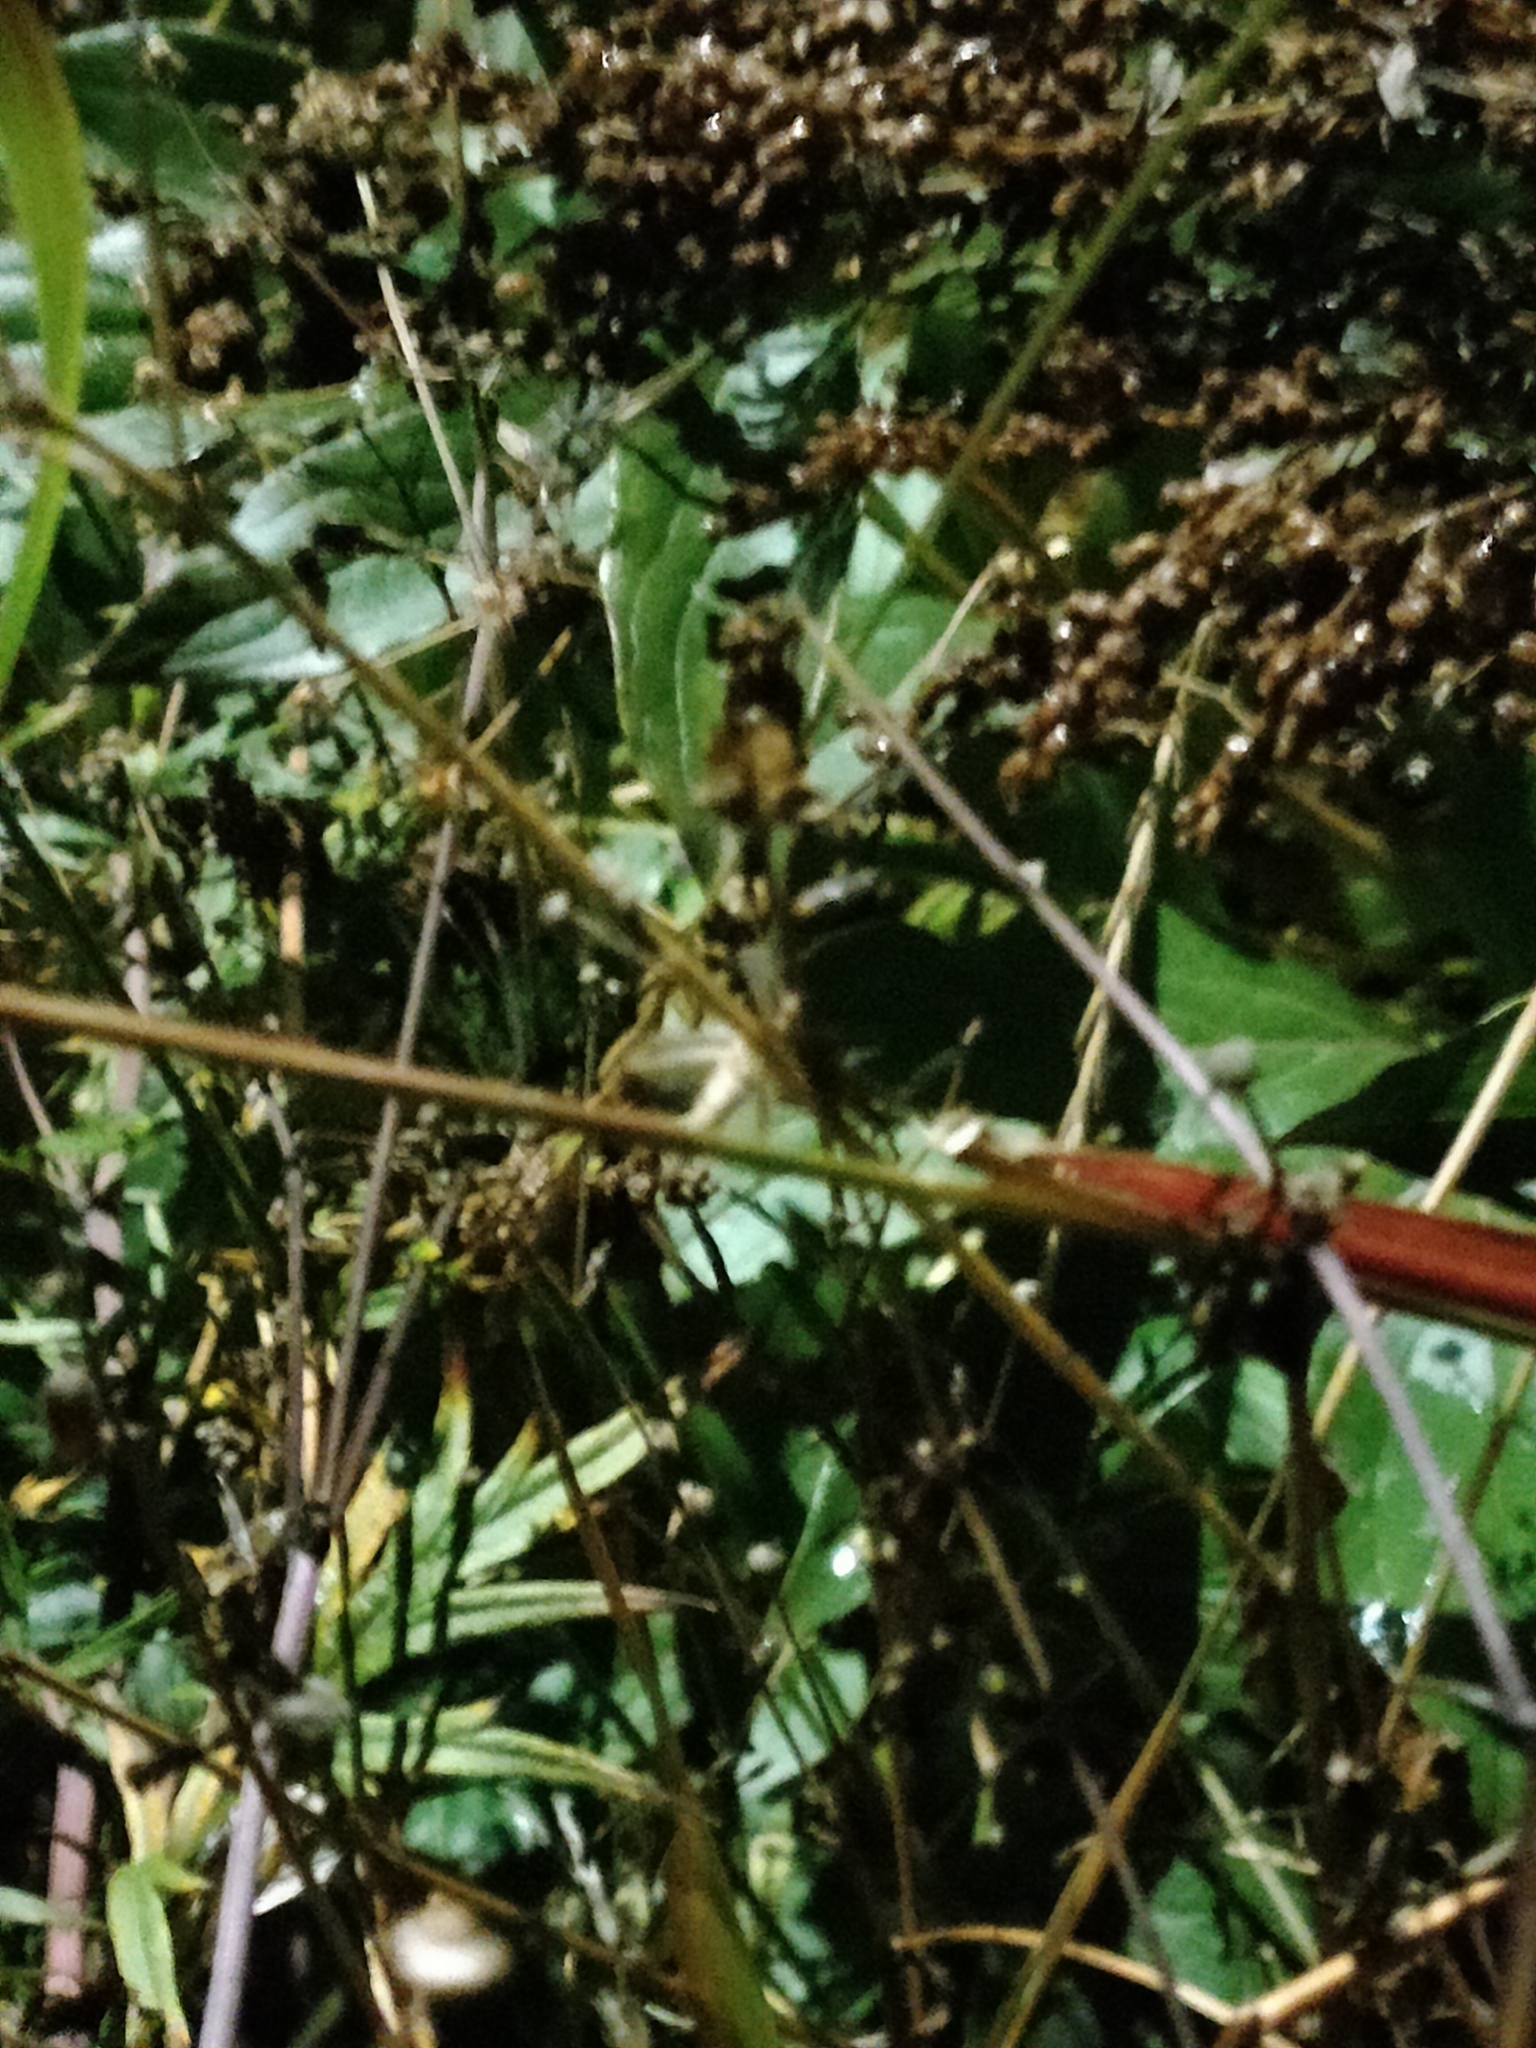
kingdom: Animalia
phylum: Arthropoda
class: Insecta
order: Orthoptera
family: Gryllidae
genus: Oecanthus
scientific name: Oecanthus pellucens
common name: Tree-cricket
